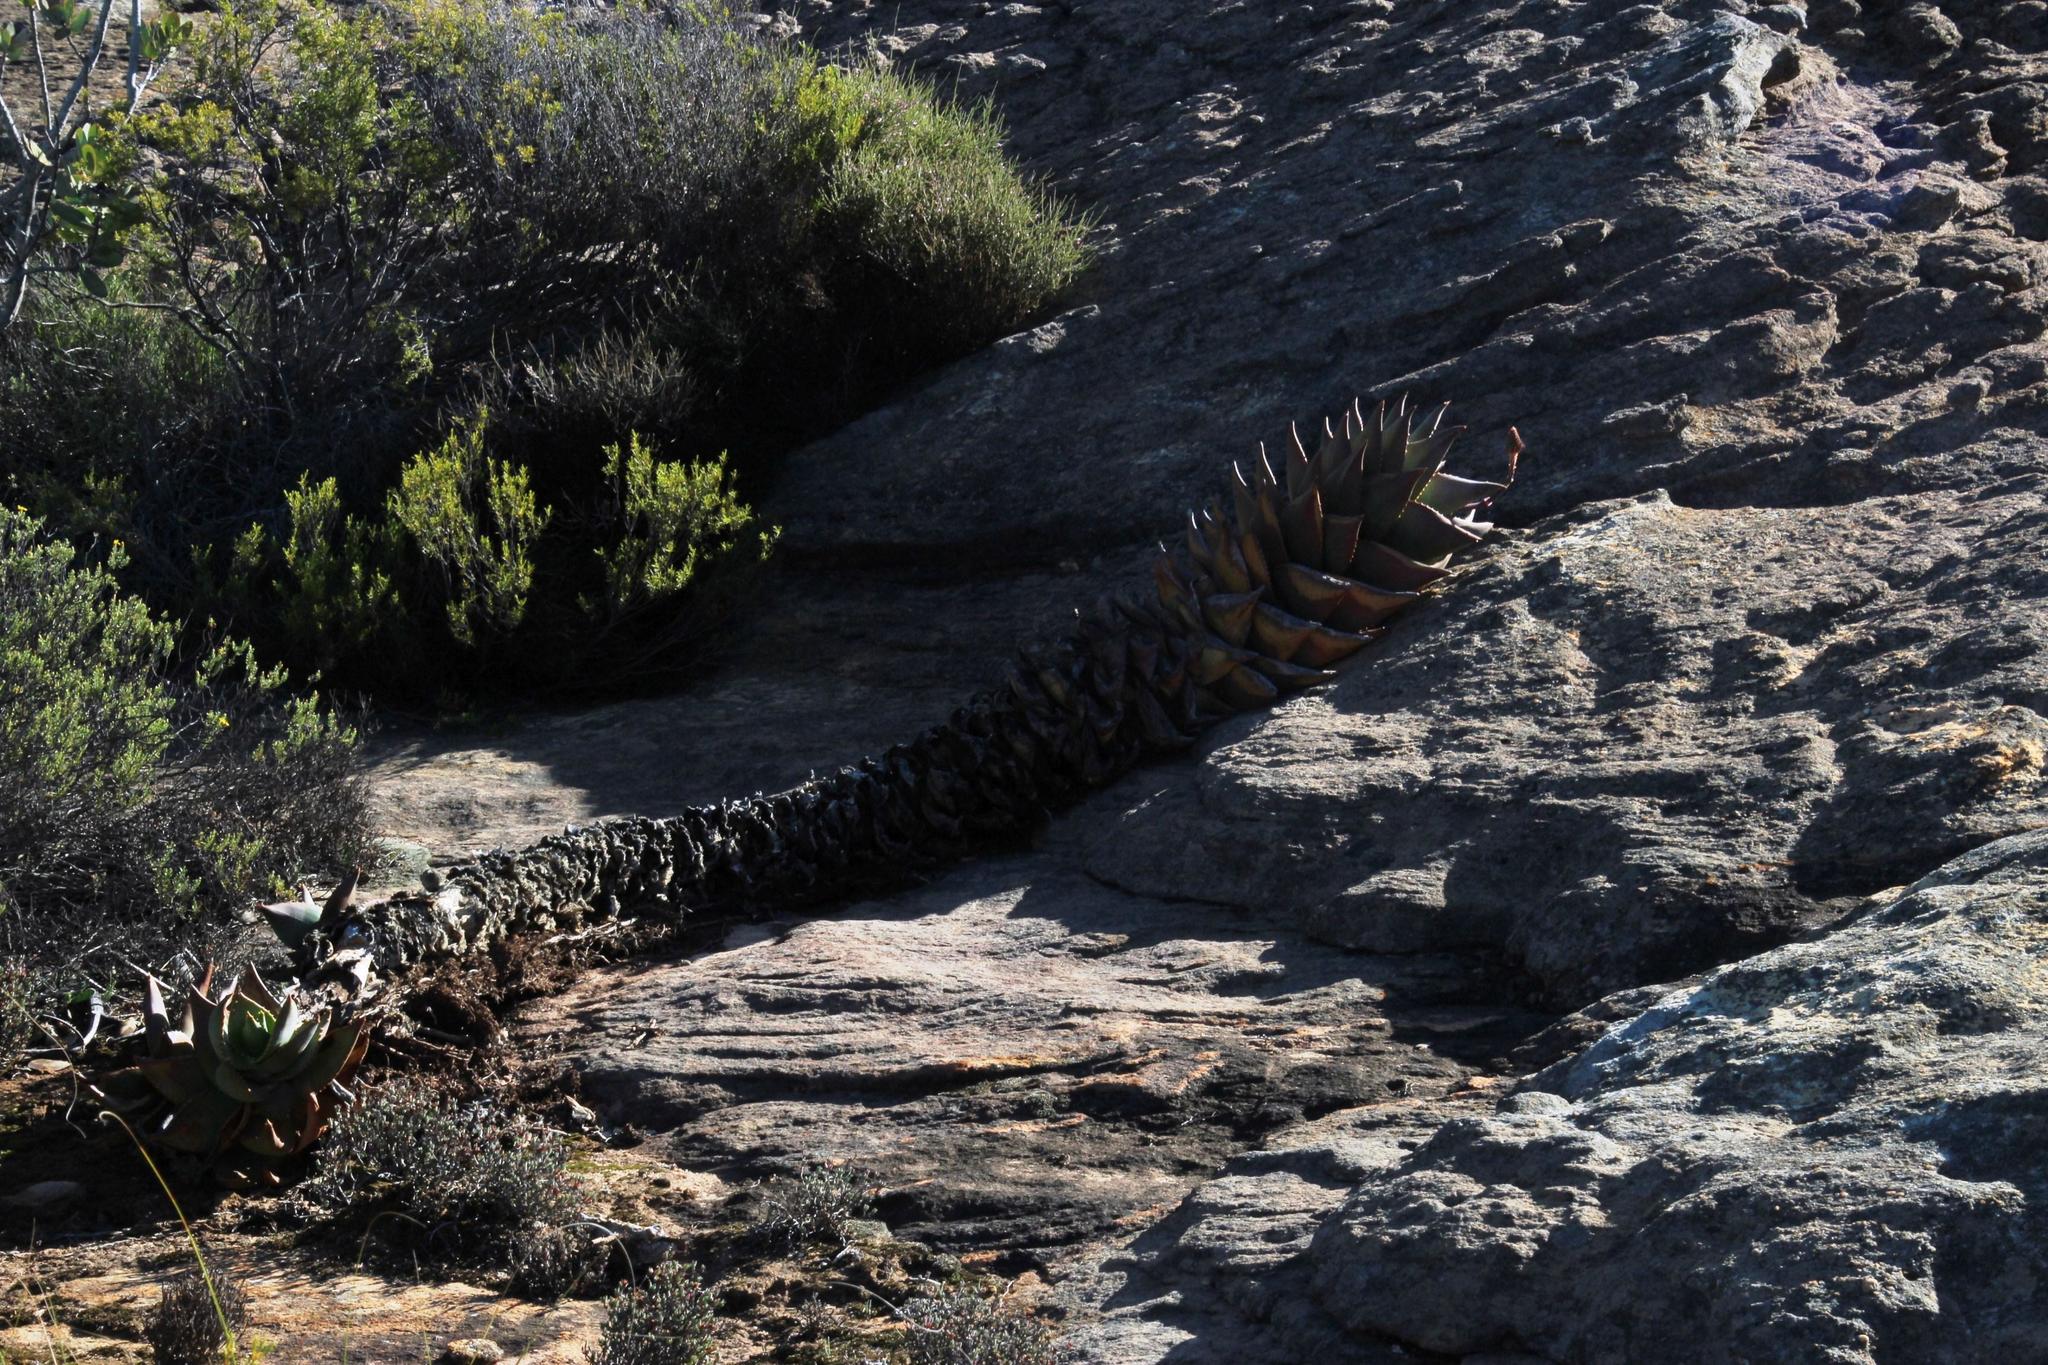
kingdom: Plantae
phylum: Tracheophyta
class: Liliopsida
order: Asparagales
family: Asphodelaceae
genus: Aloe
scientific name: Aloe perfoliata
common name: Mitra aloe
